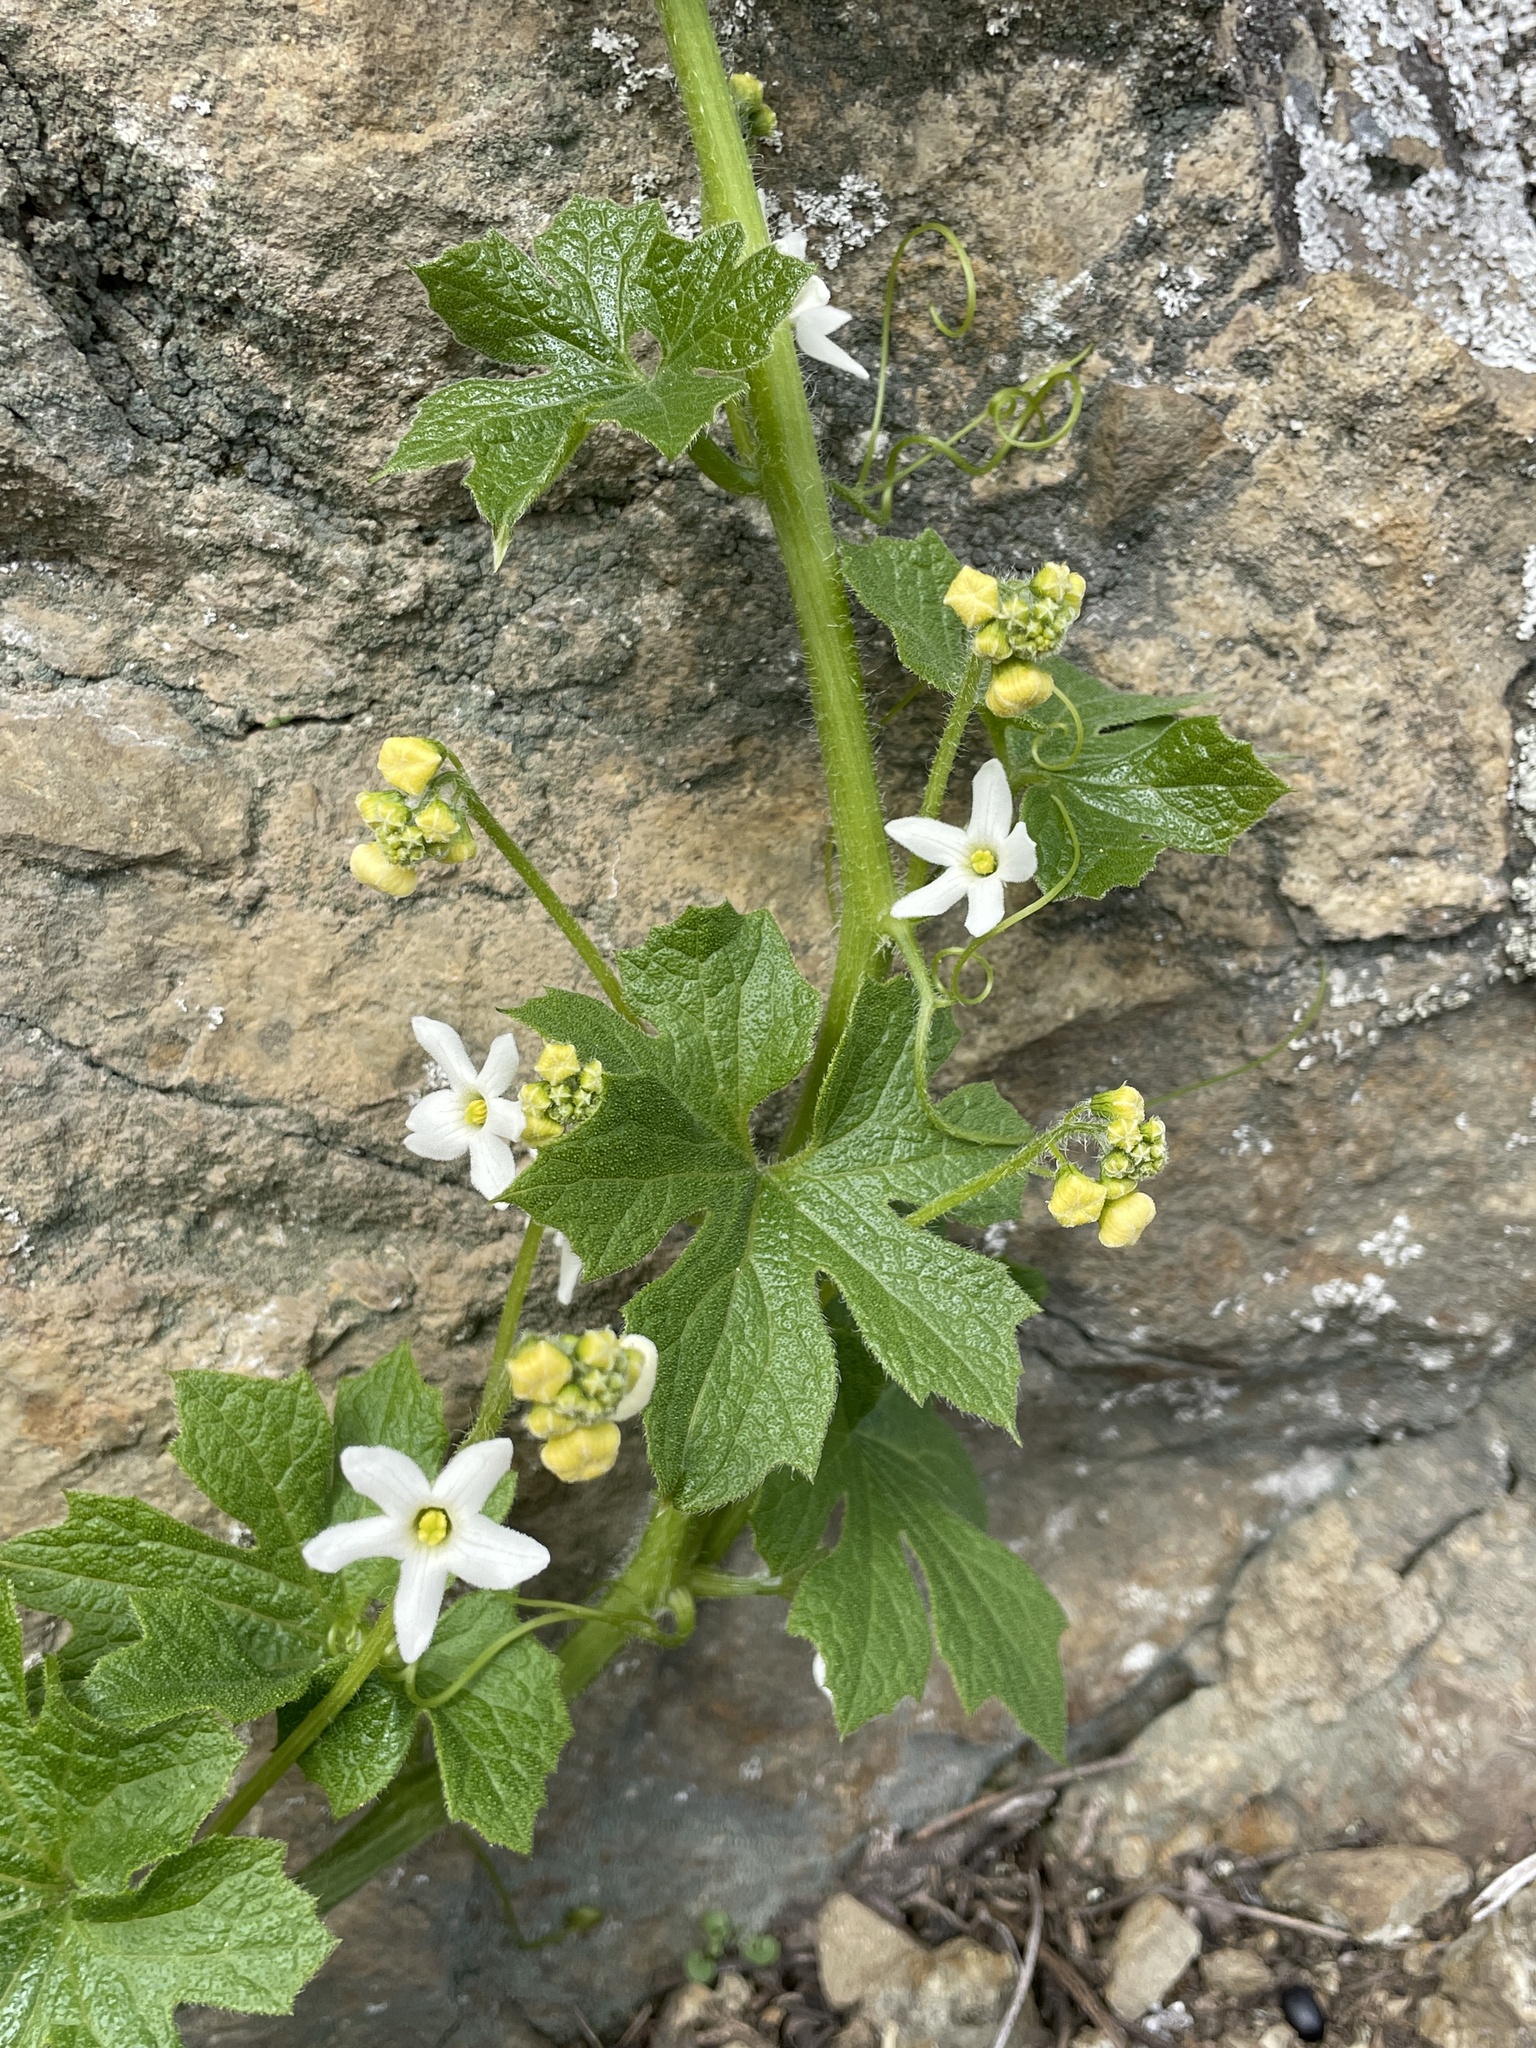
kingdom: Plantae
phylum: Tracheophyta
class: Magnoliopsida
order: Cucurbitales
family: Cucurbitaceae
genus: Marah
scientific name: Marah oregana
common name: Coastal manroot
